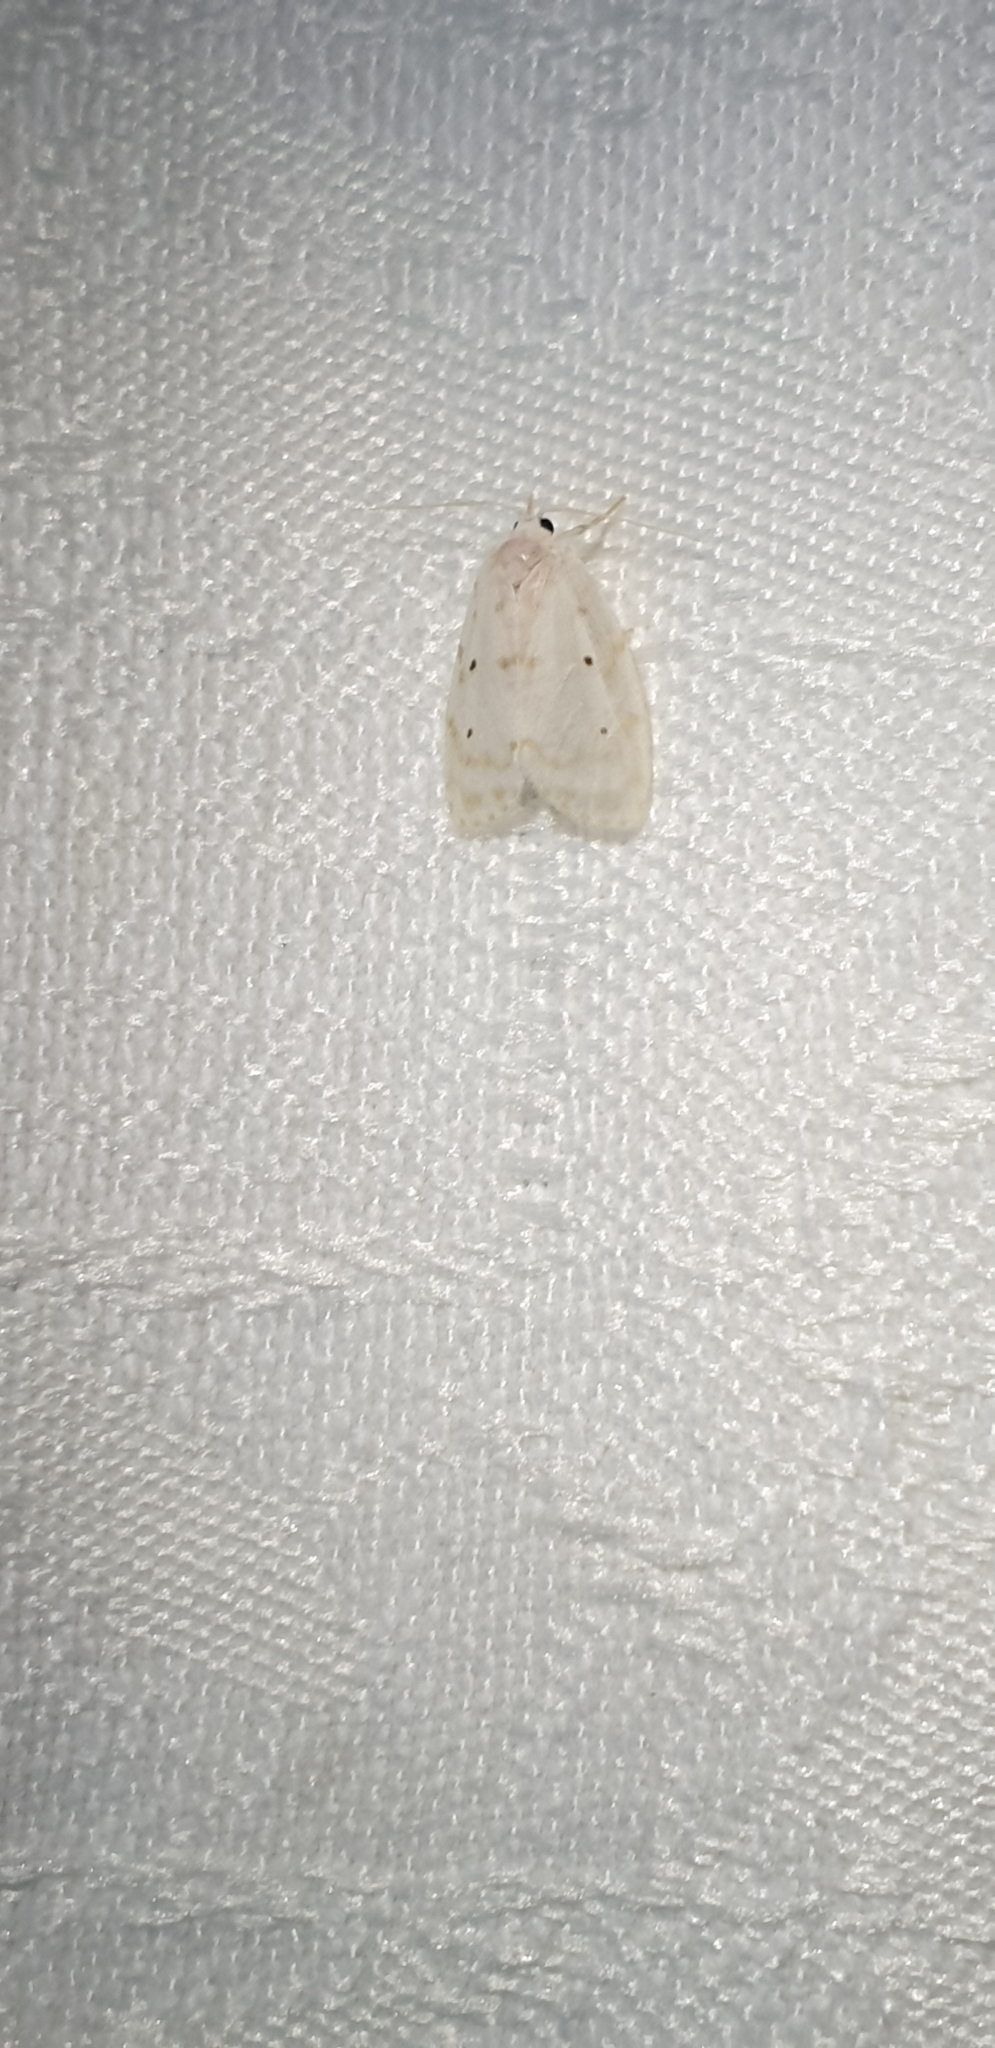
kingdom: Animalia
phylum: Arthropoda
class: Insecta
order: Lepidoptera
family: Erebidae
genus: Schistophleps
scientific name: Schistophleps albida
